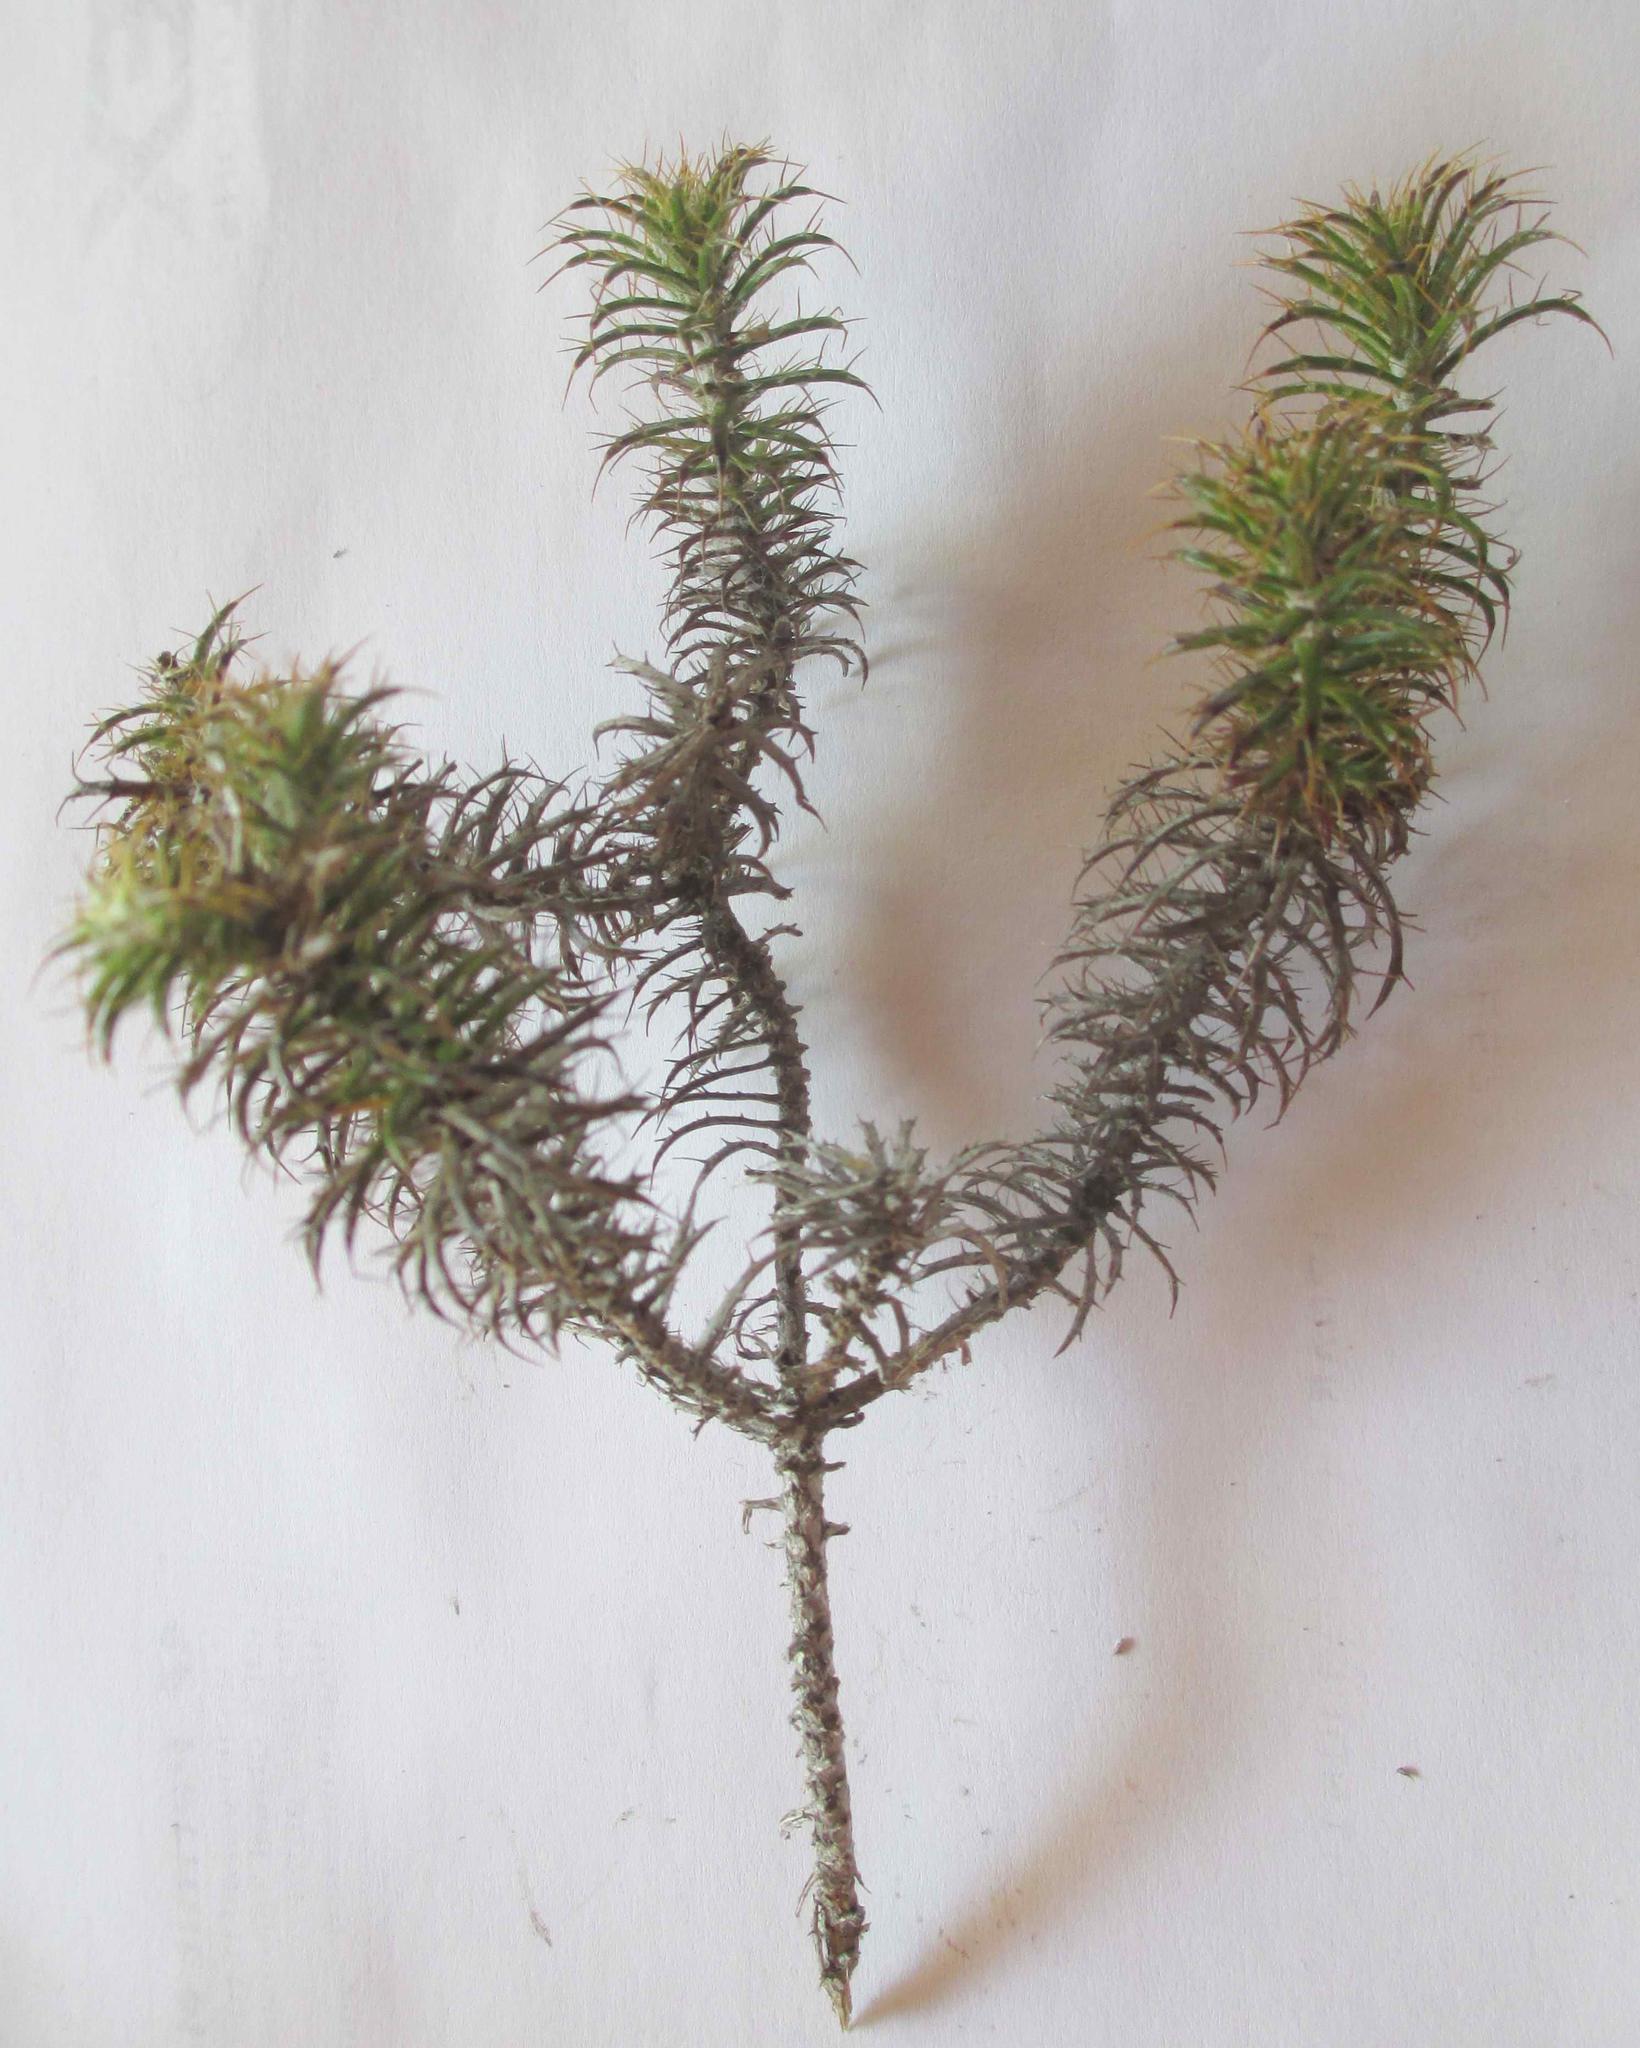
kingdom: Plantae
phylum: Tracheophyta
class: Magnoliopsida
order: Asterales
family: Asteraceae
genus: Cullumia
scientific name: Cullumia patula
